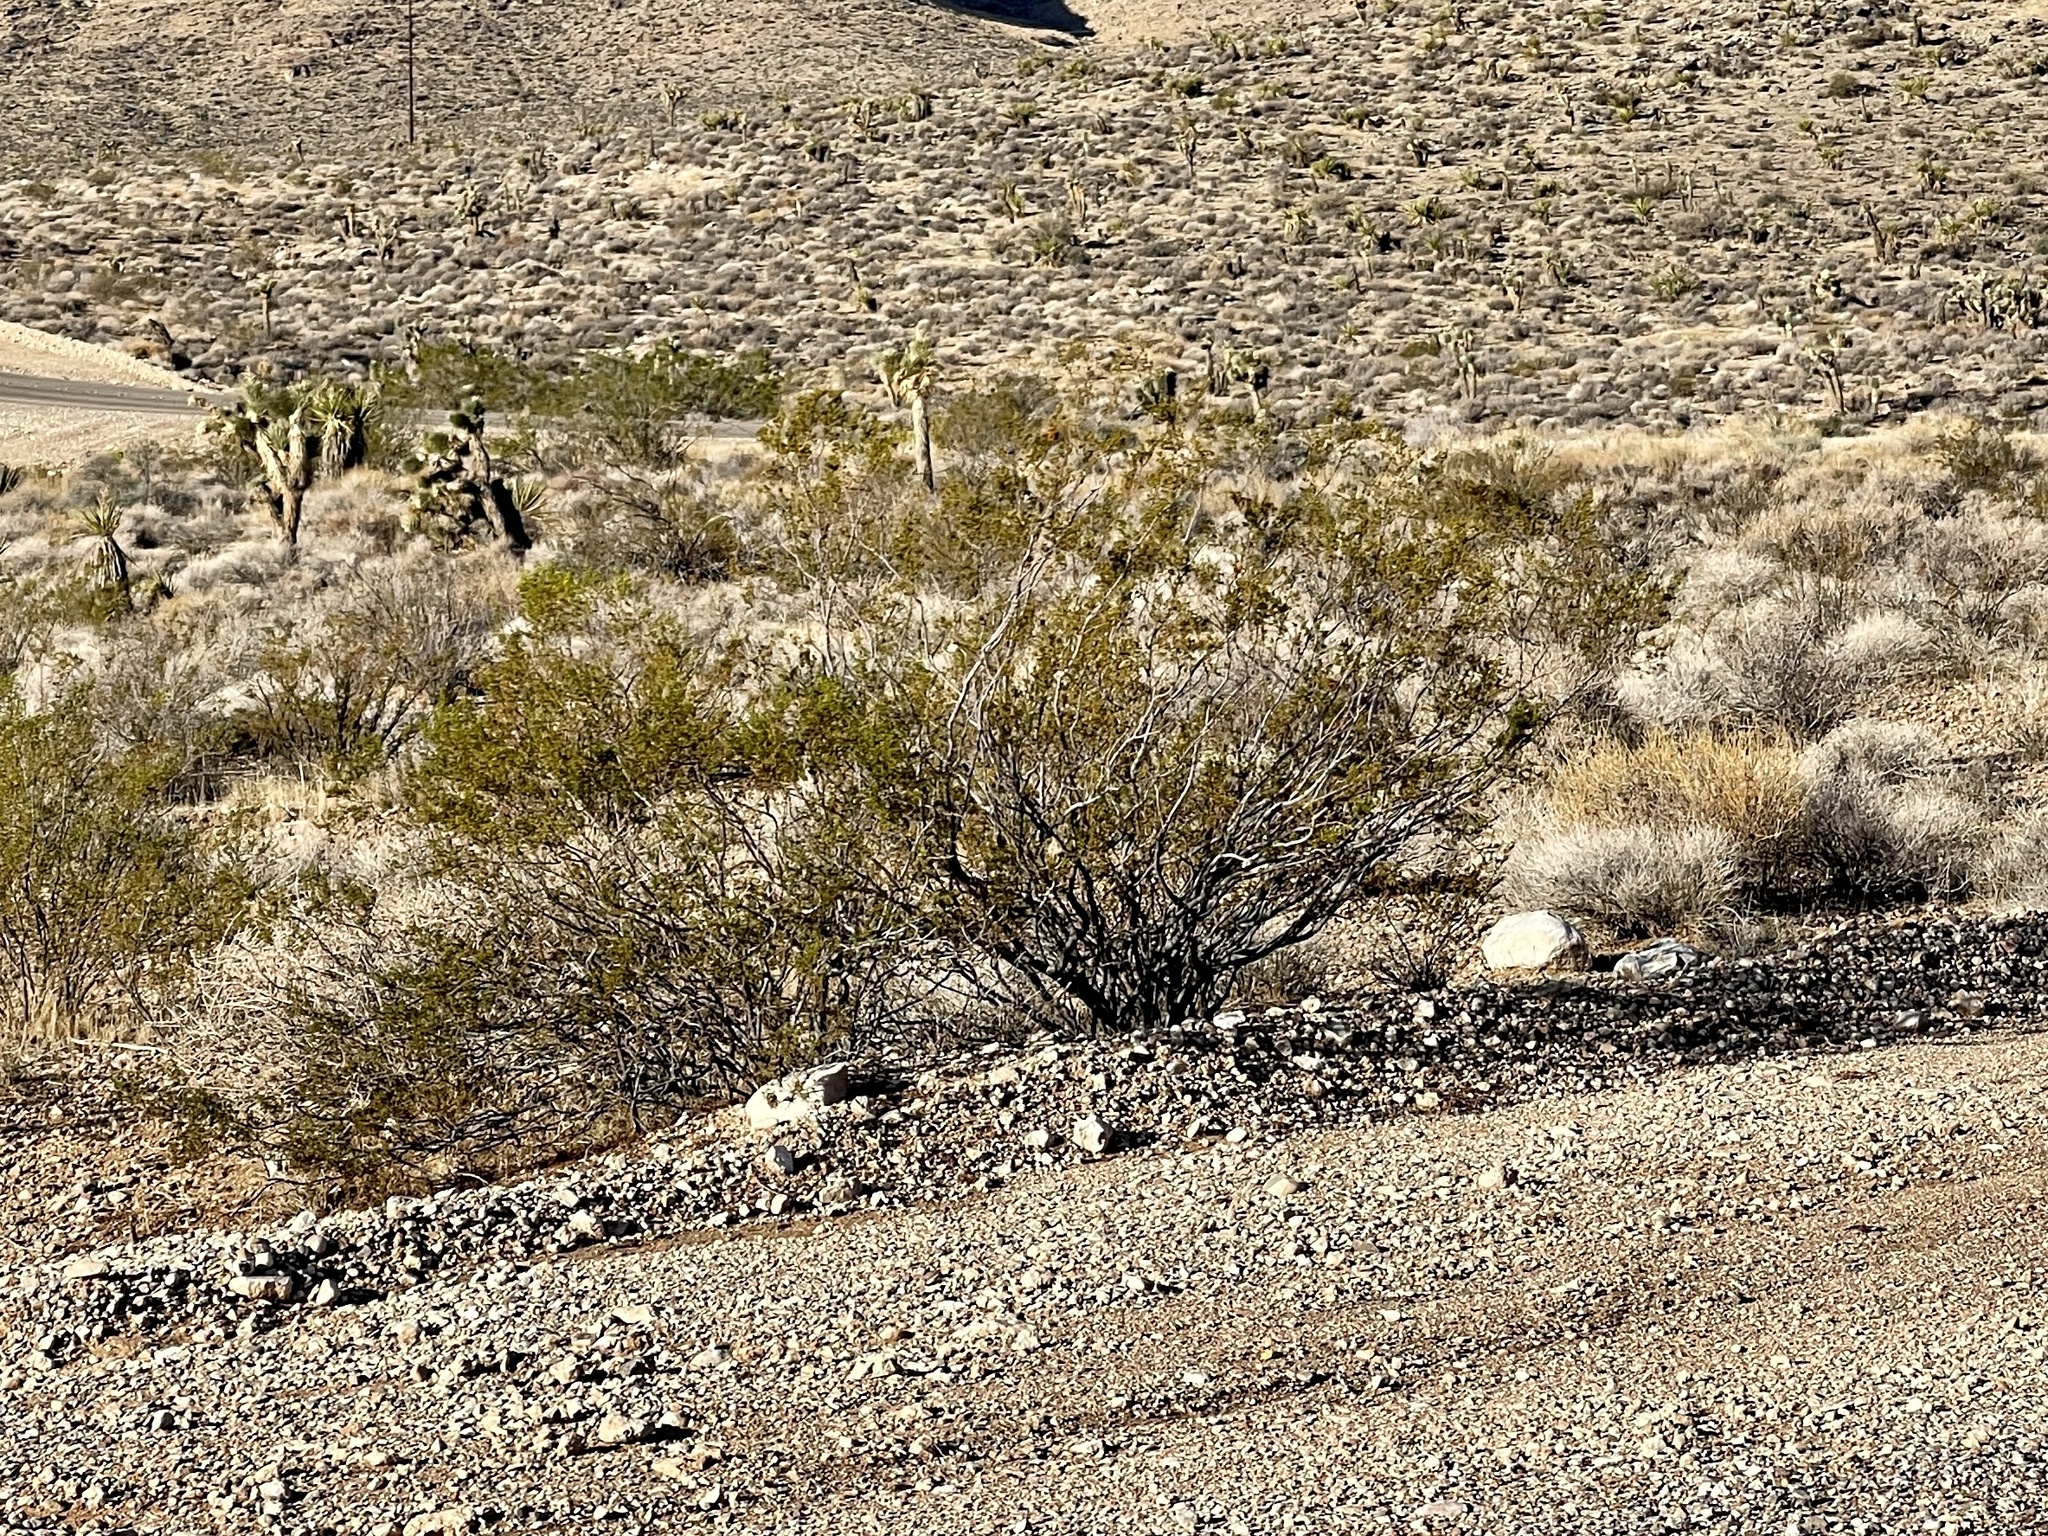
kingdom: Plantae
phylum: Tracheophyta
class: Magnoliopsida
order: Zygophyllales
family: Zygophyllaceae
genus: Larrea
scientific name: Larrea tridentata
